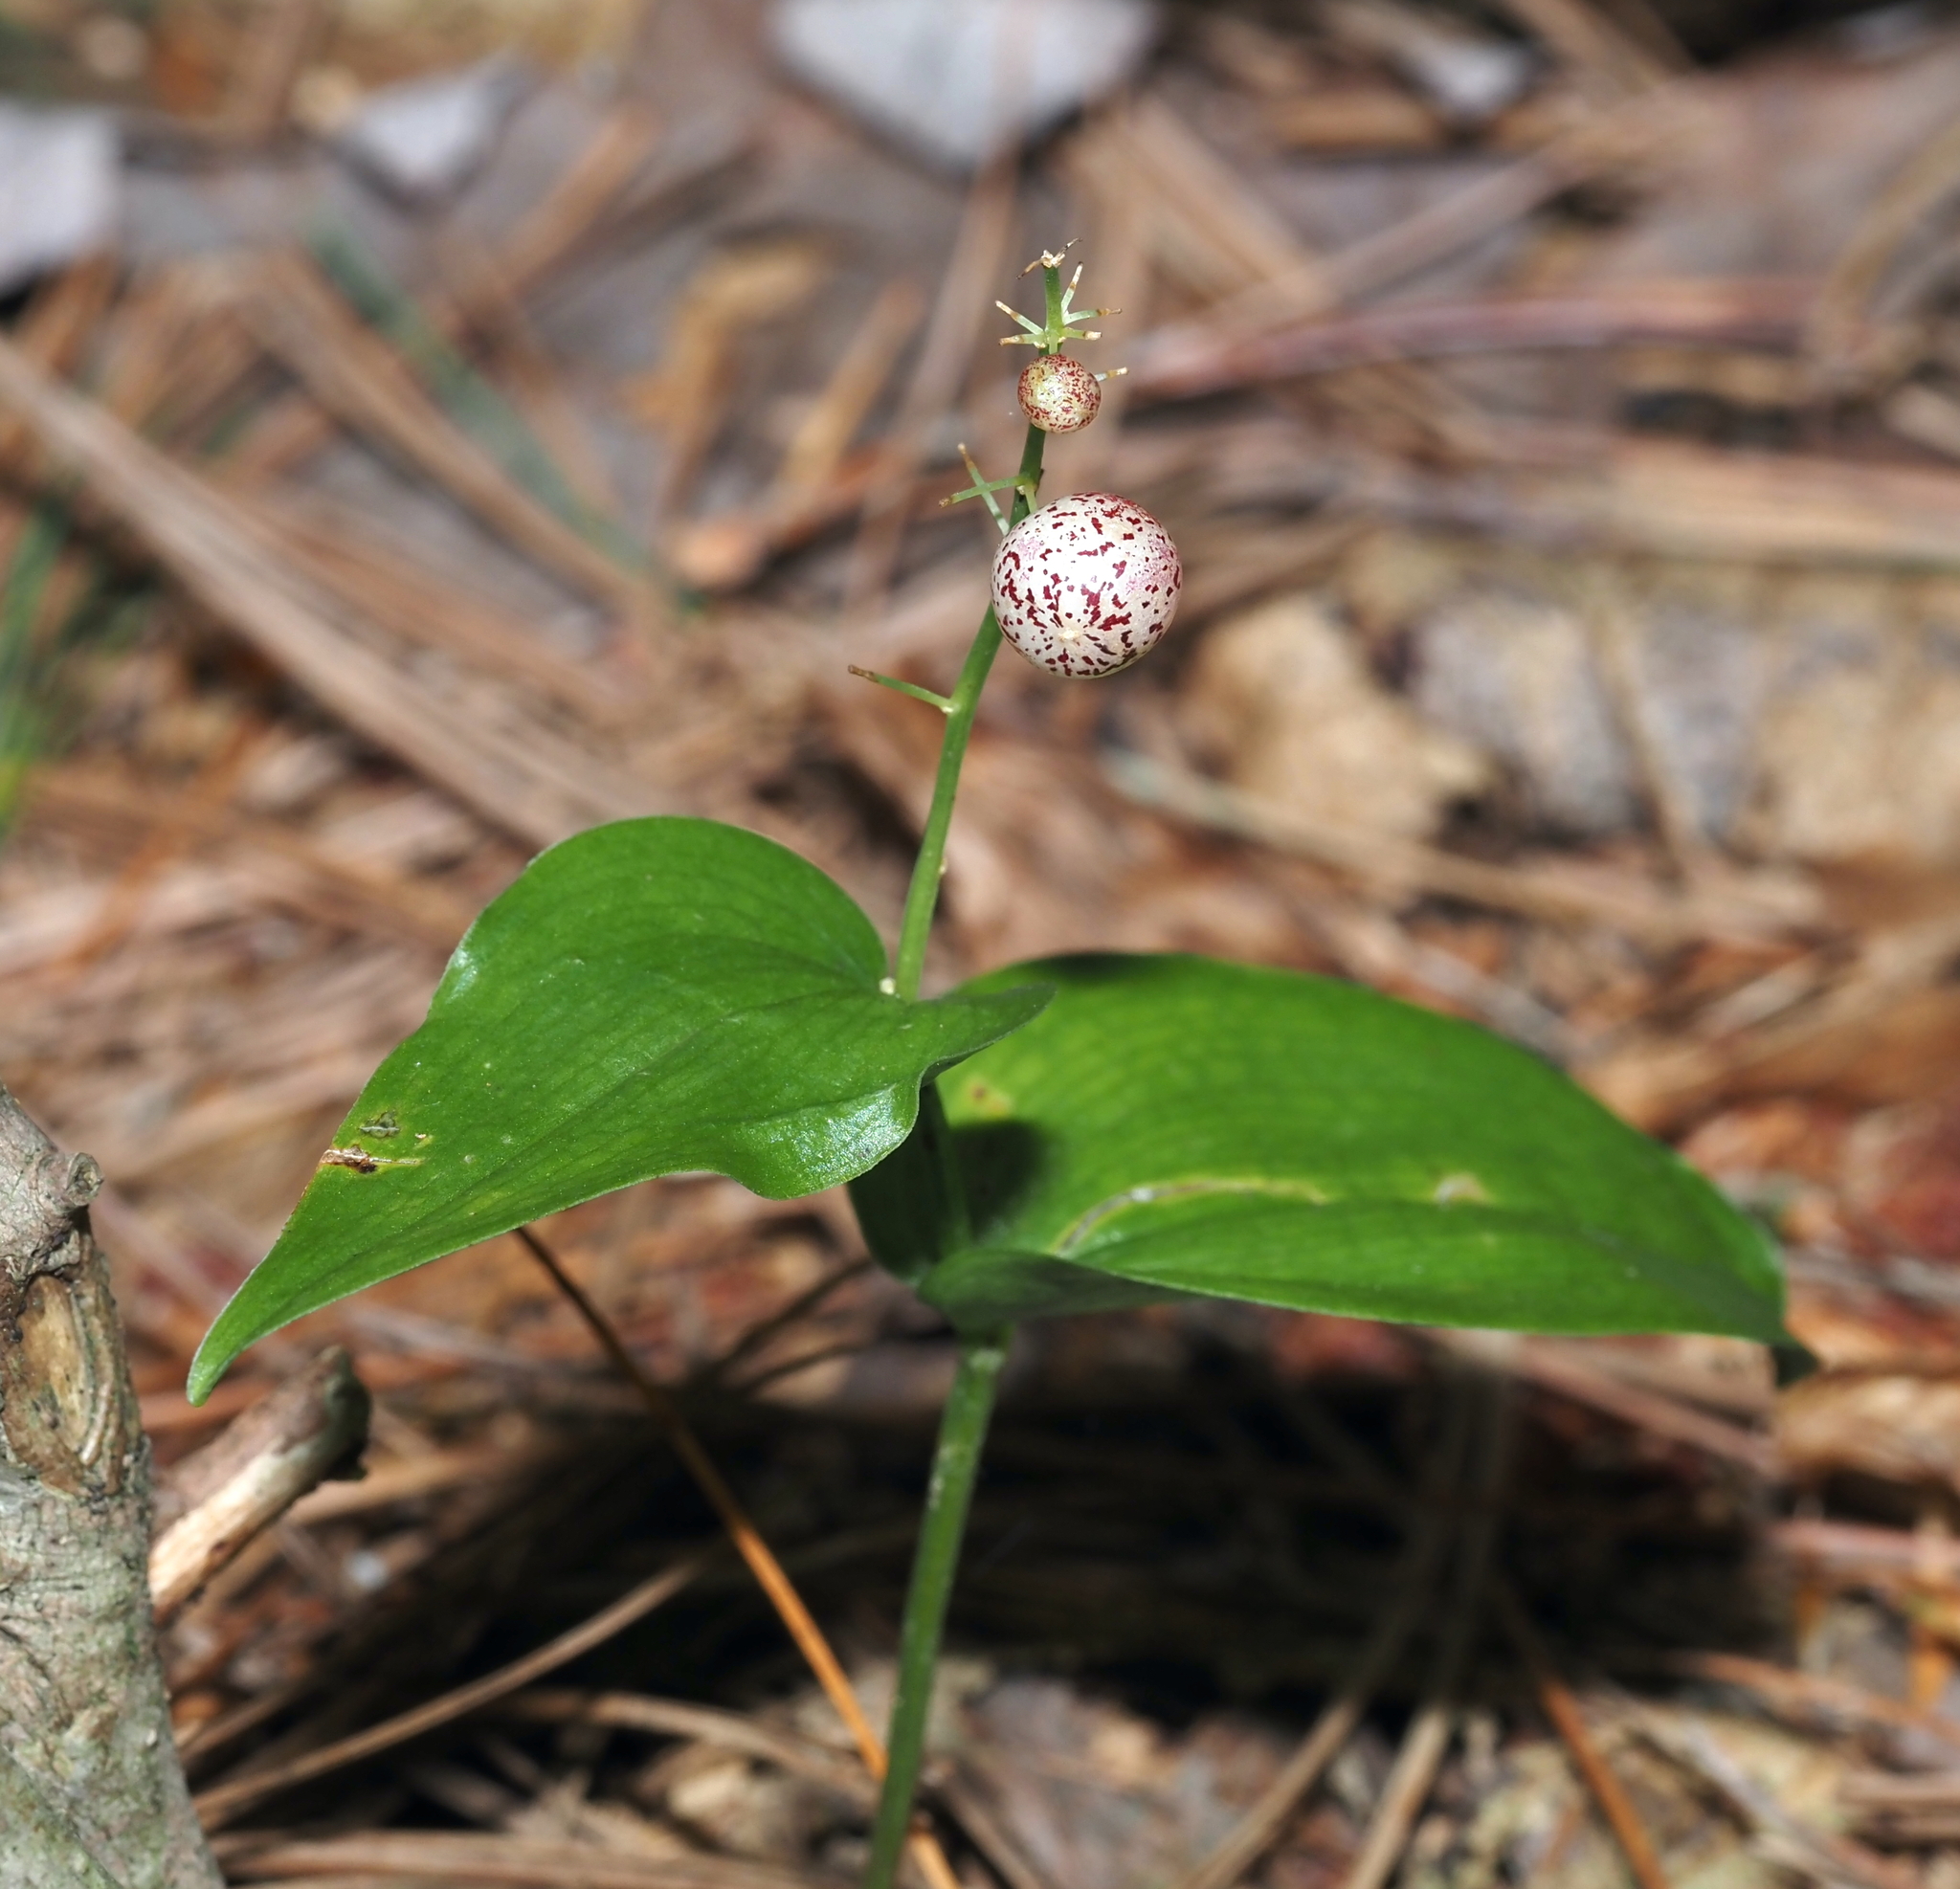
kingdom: Plantae
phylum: Tracheophyta
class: Liliopsida
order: Asparagales
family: Asparagaceae
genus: Maianthemum
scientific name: Maianthemum canadense
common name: False lily-of-the-valley
